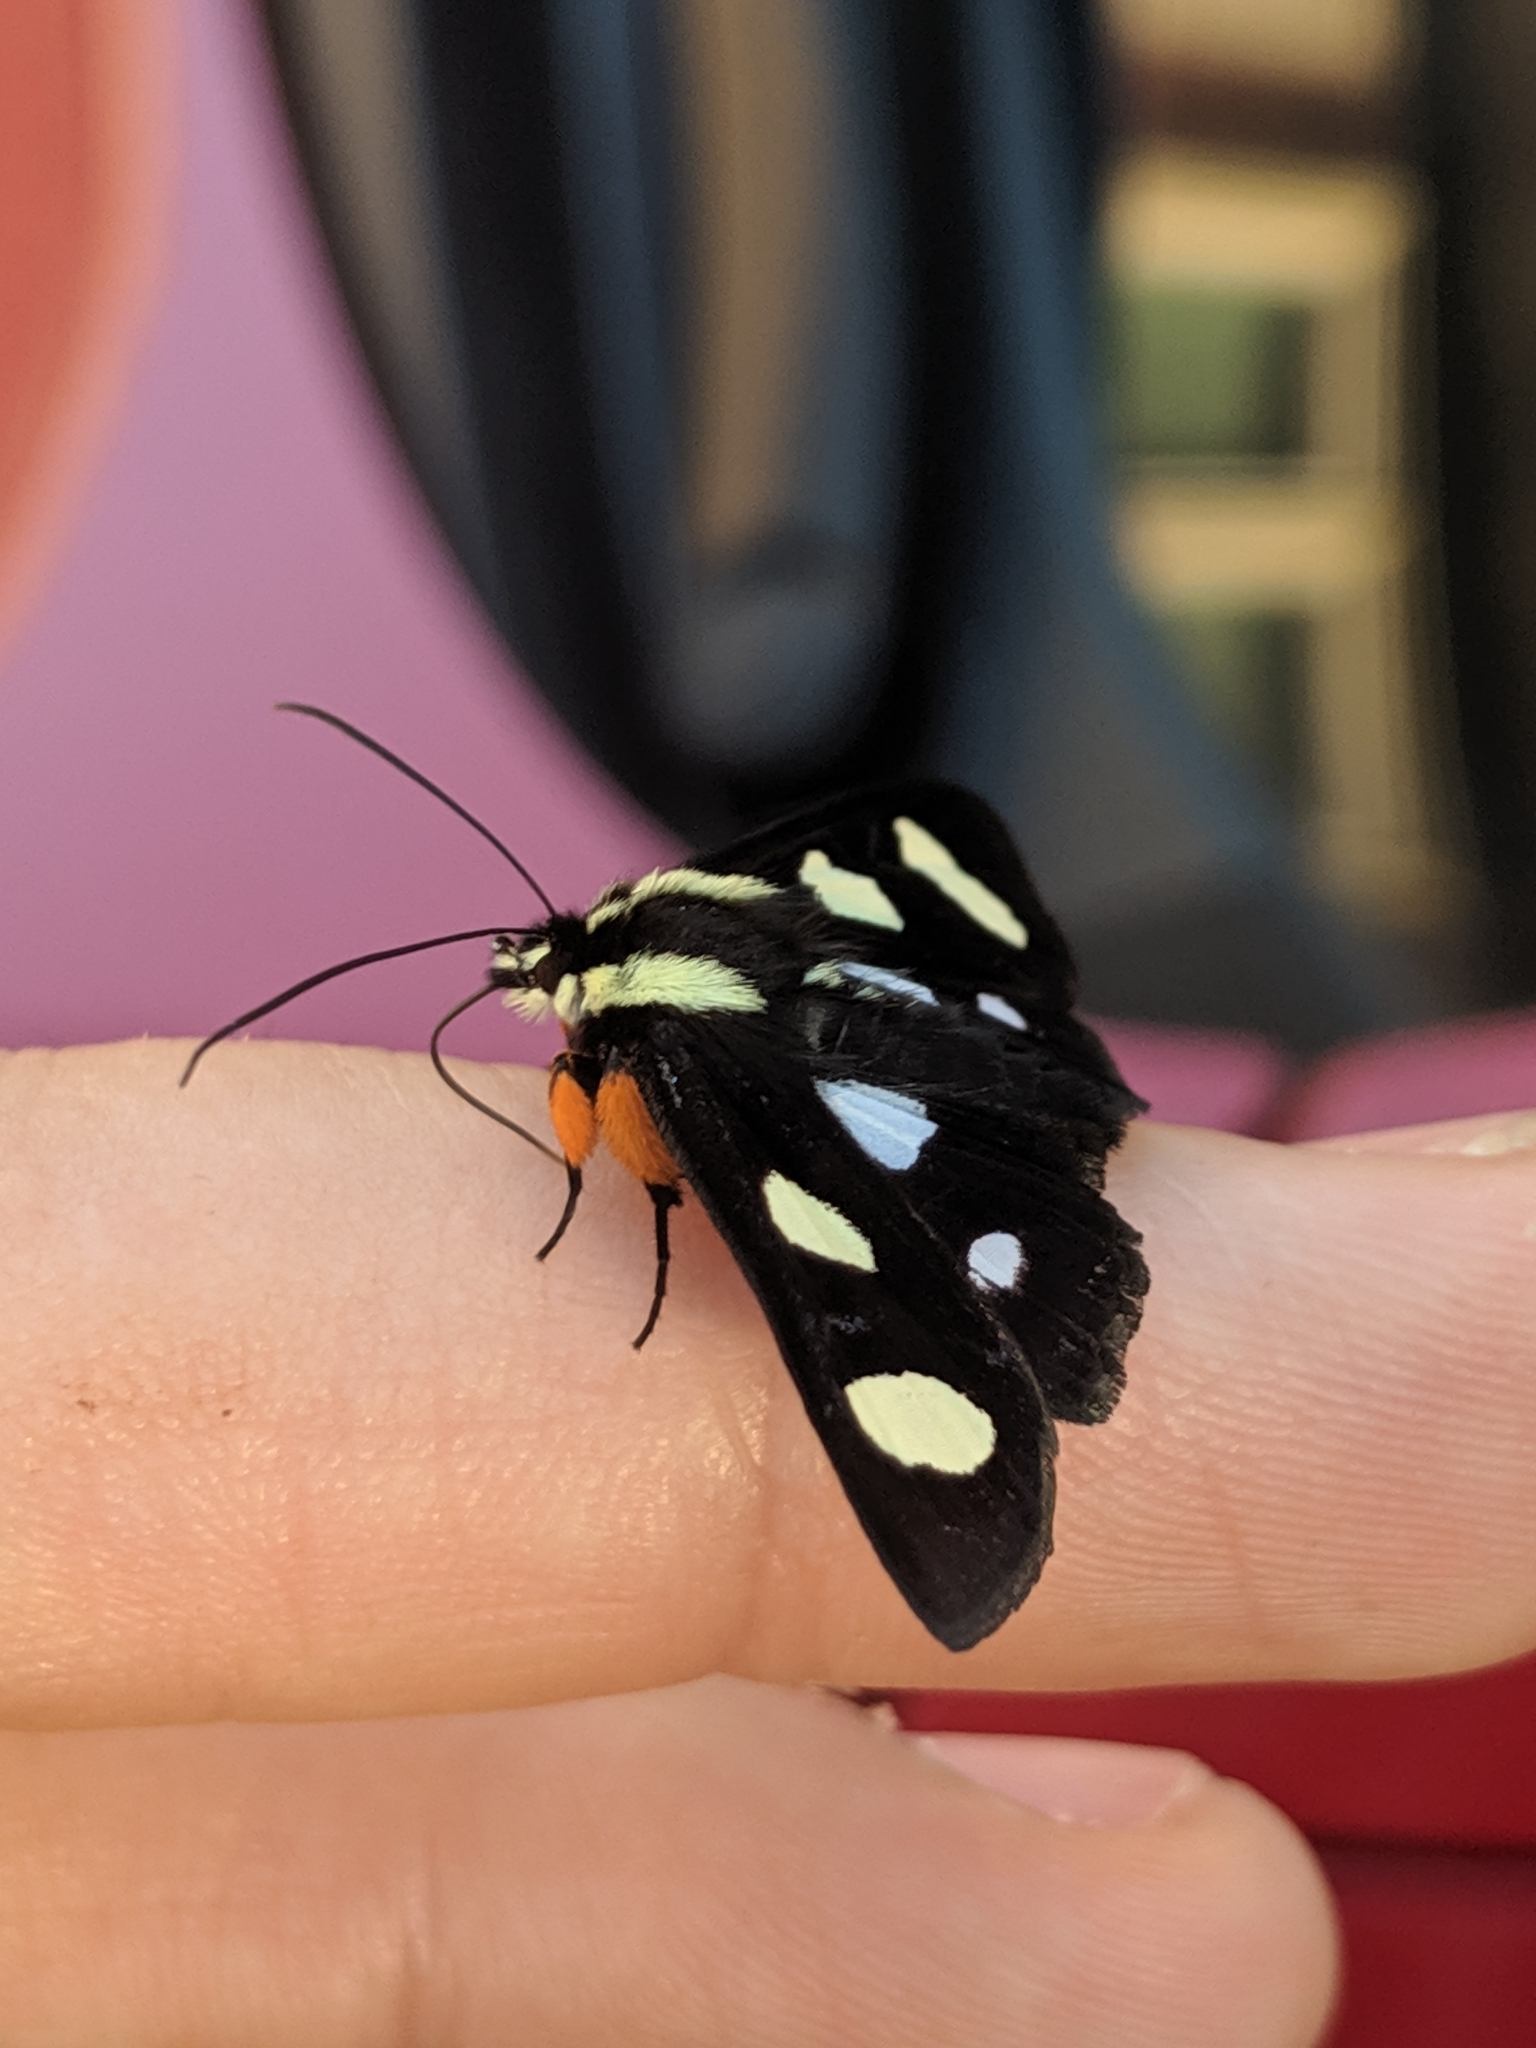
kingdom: Animalia
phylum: Arthropoda
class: Insecta
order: Lepidoptera
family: Noctuidae
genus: Alypia
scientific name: Alypia octomaculata
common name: Eight-spotted forester
